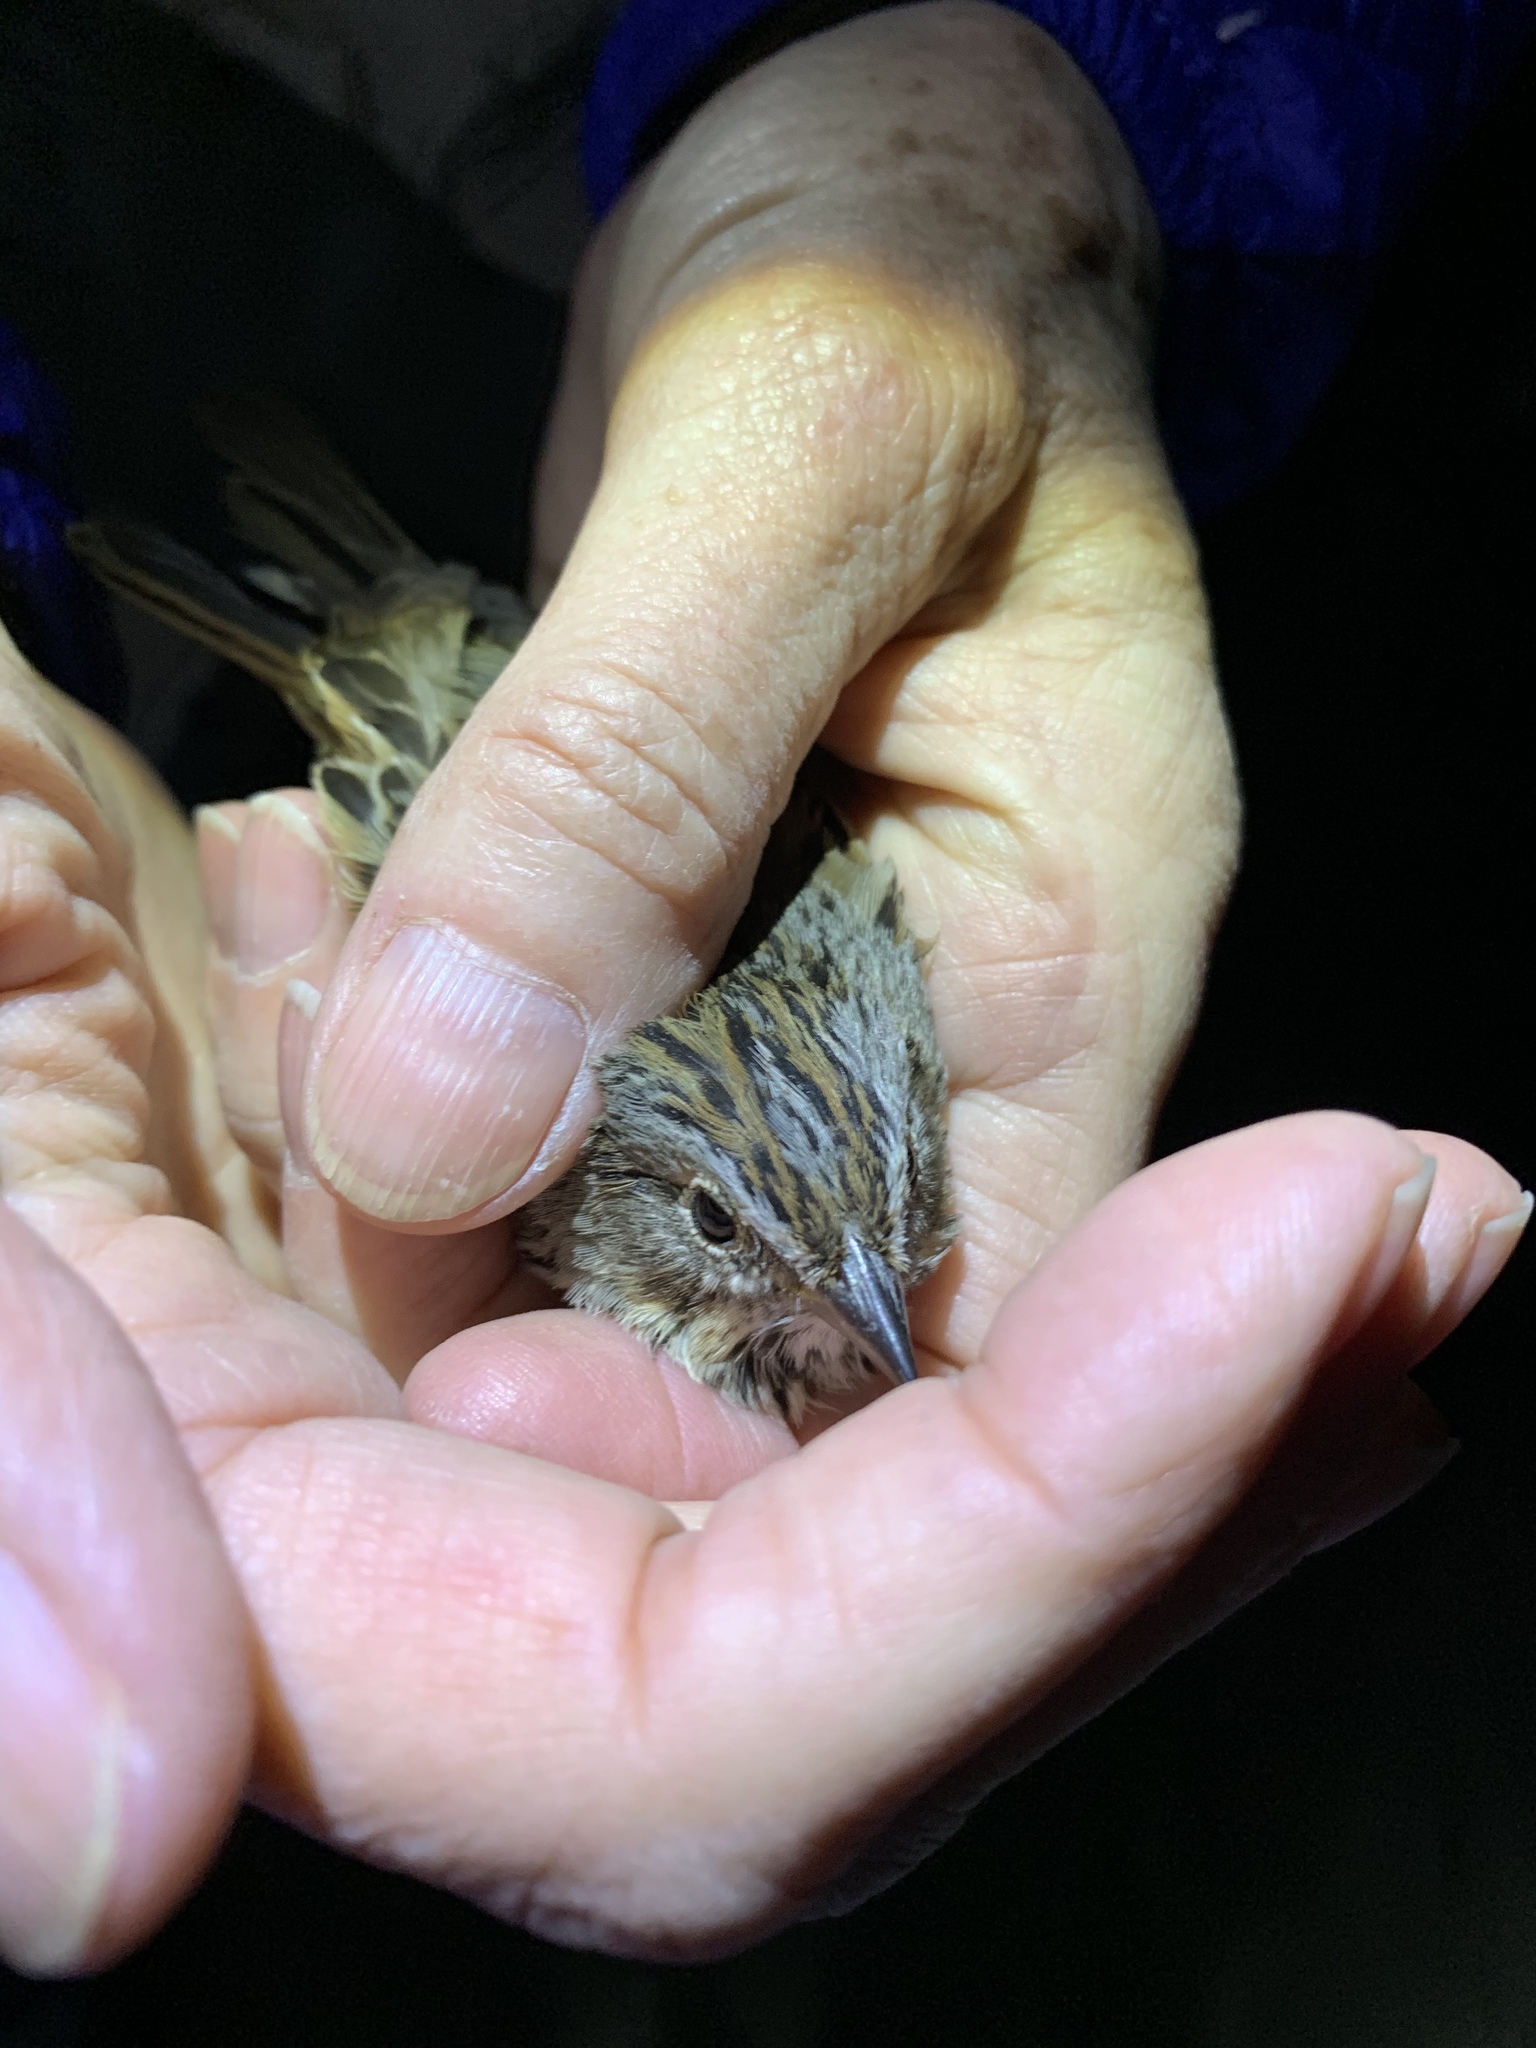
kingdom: Animalia
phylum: Chordata
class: Aves
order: Passeriformes
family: Passerellidae
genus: Melospiza
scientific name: Melospiza lincolnii
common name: Lincoln's sparrow
